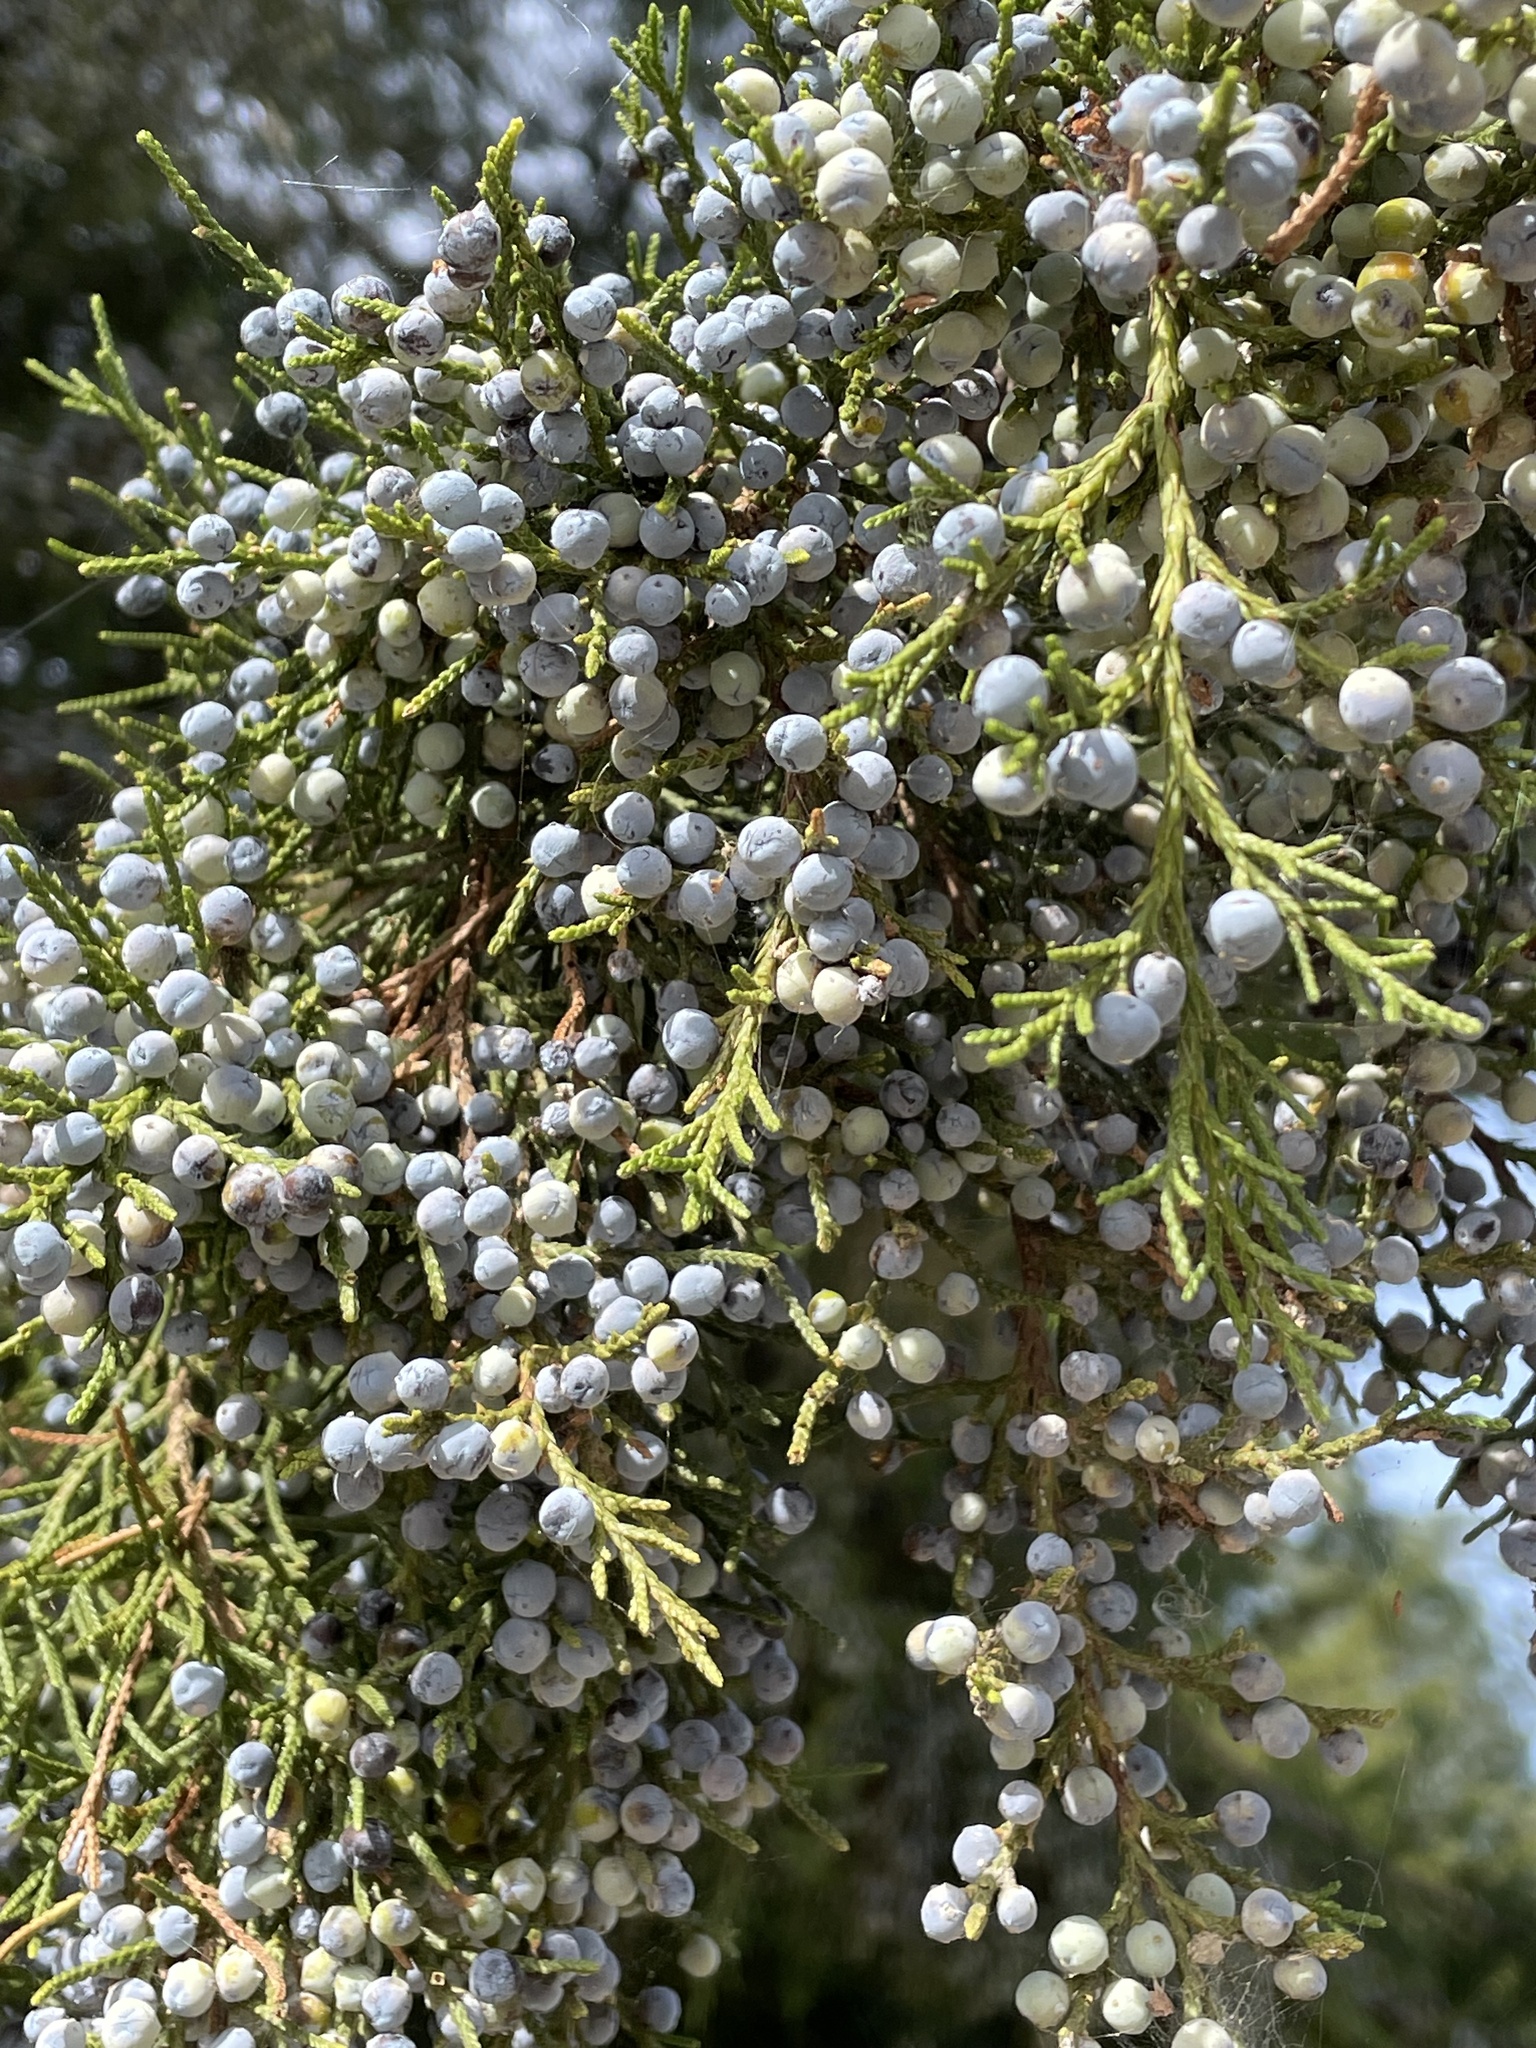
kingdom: Plantae
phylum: Tracheophyta
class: Pinopsida
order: Pinales
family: Cupressaceae
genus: Juniperus
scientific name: Juniperus virginiana
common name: Red juniper
